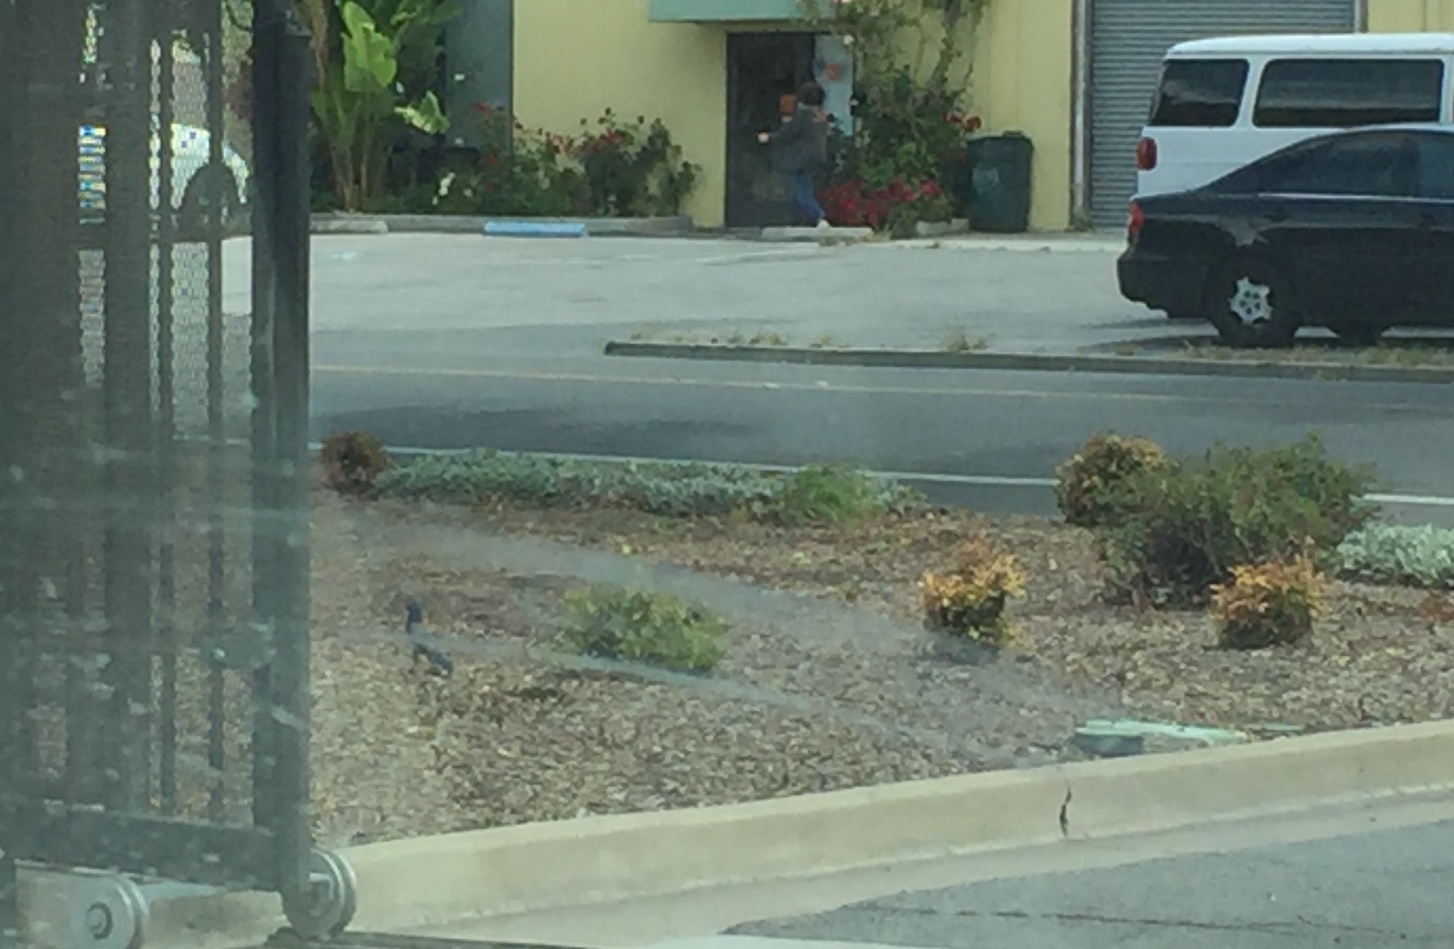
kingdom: Animalia
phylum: Chordata
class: Aves
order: Passeriformes
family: Corvidae
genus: Aphelocoma
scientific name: Aphelocoma californica
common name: California scrub-jay
